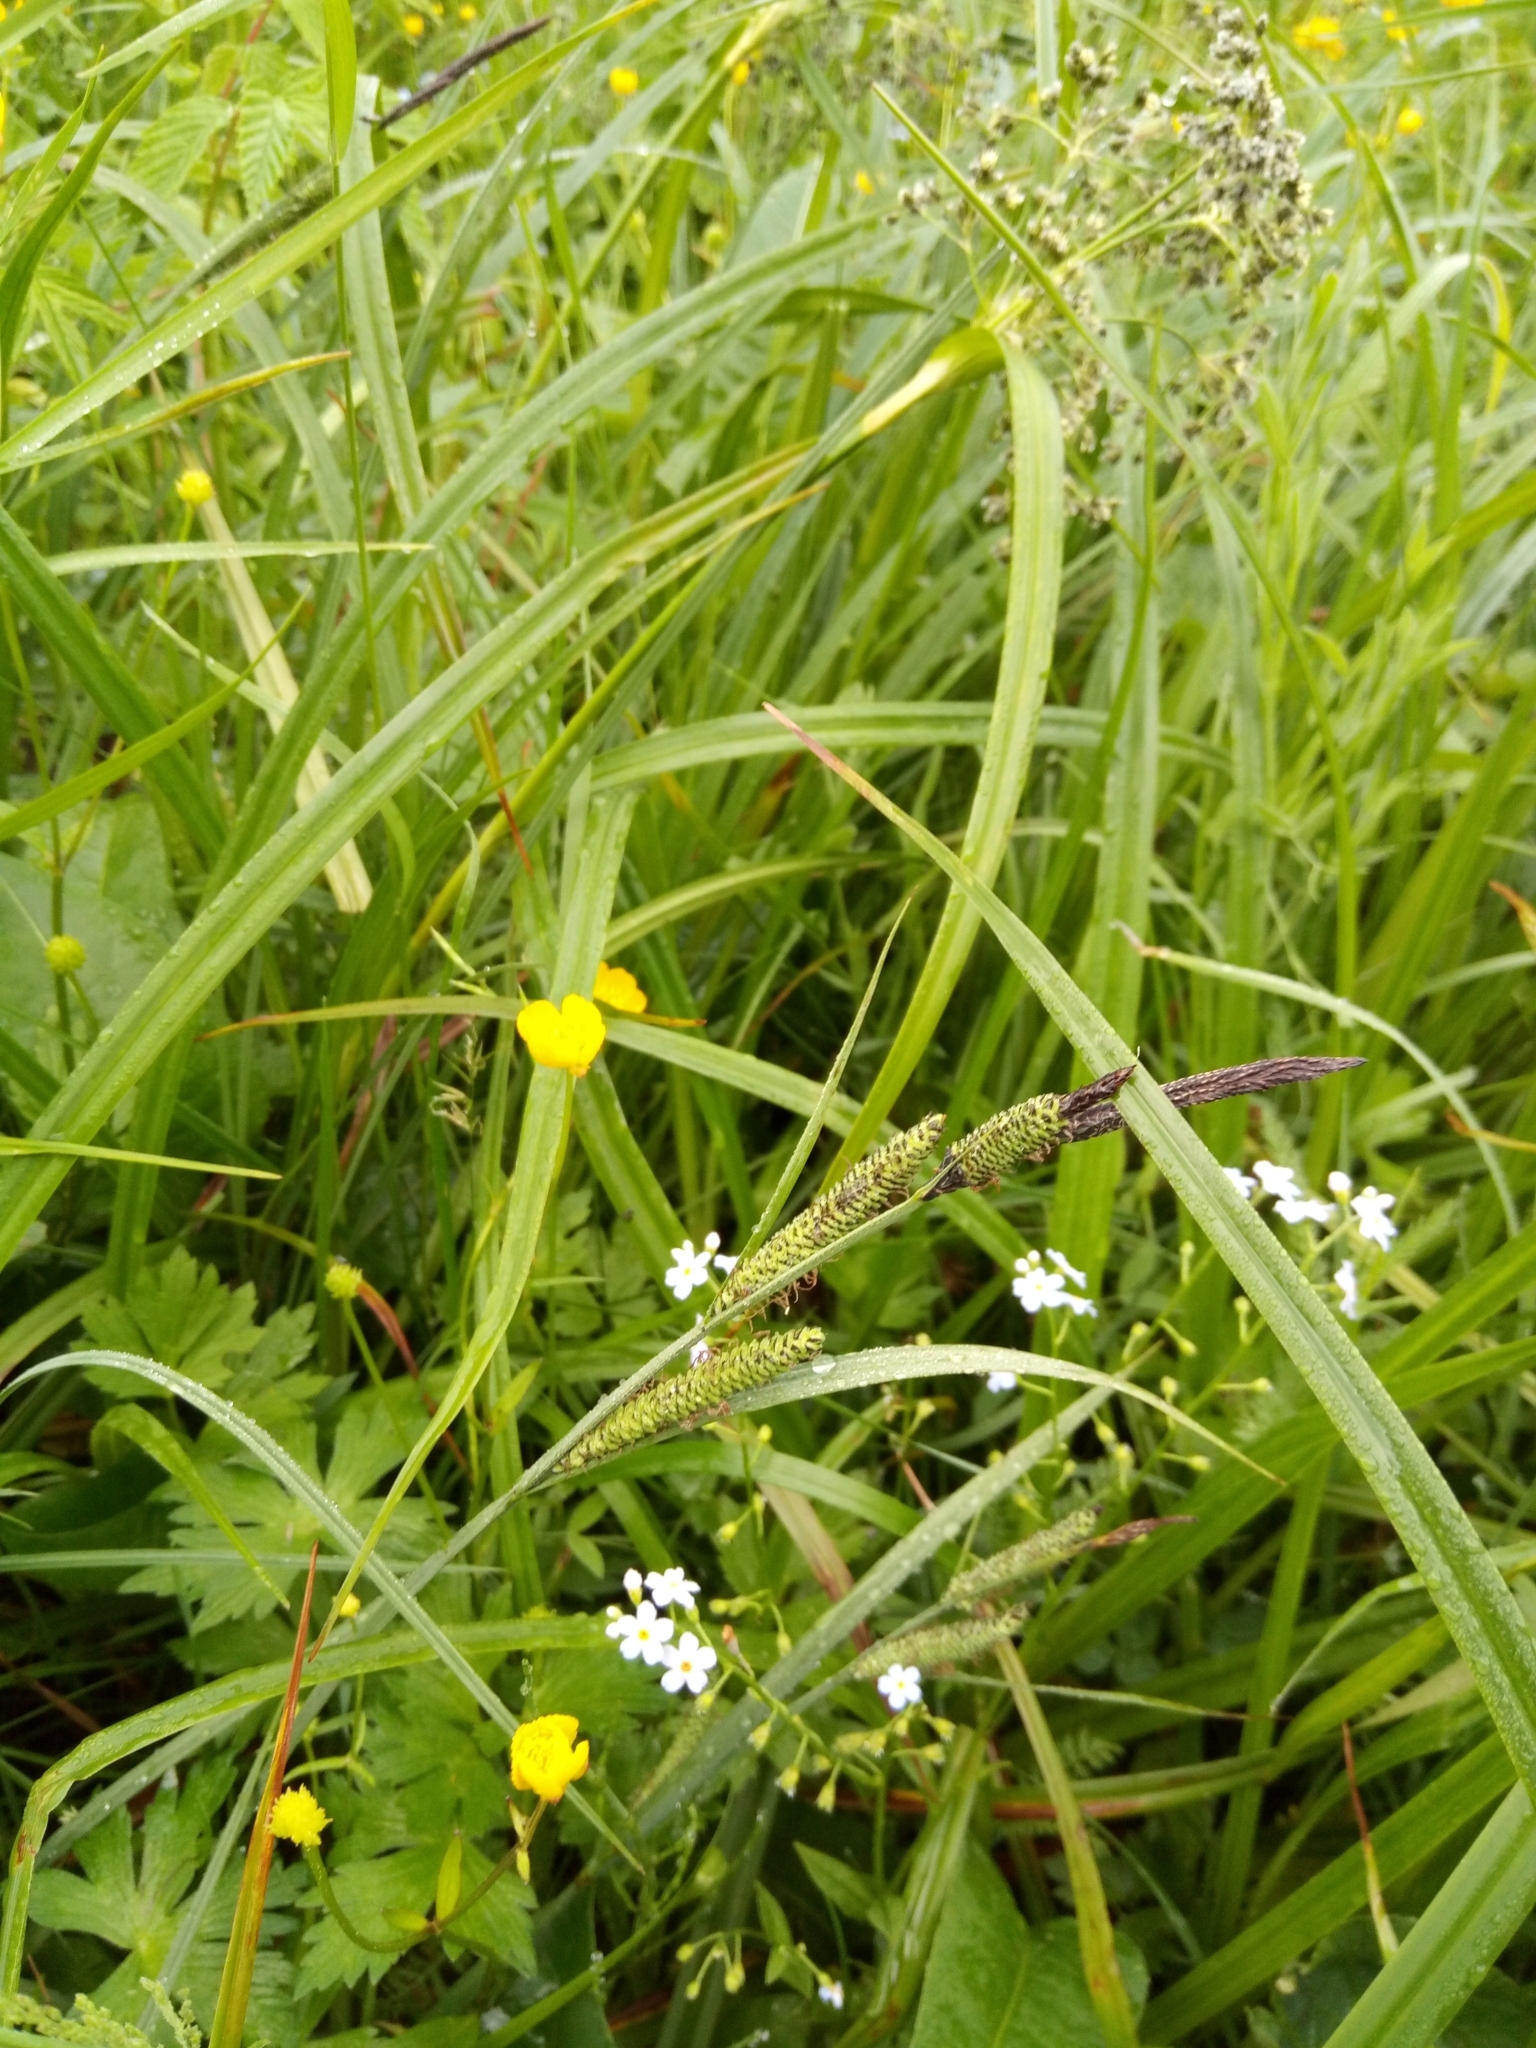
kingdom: Plantae
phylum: Tracheophyta
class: Liliopsida
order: Poales
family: Cyperaceae
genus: Scirpus
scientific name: Scirpus sylvaticus
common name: Wood club-rush
